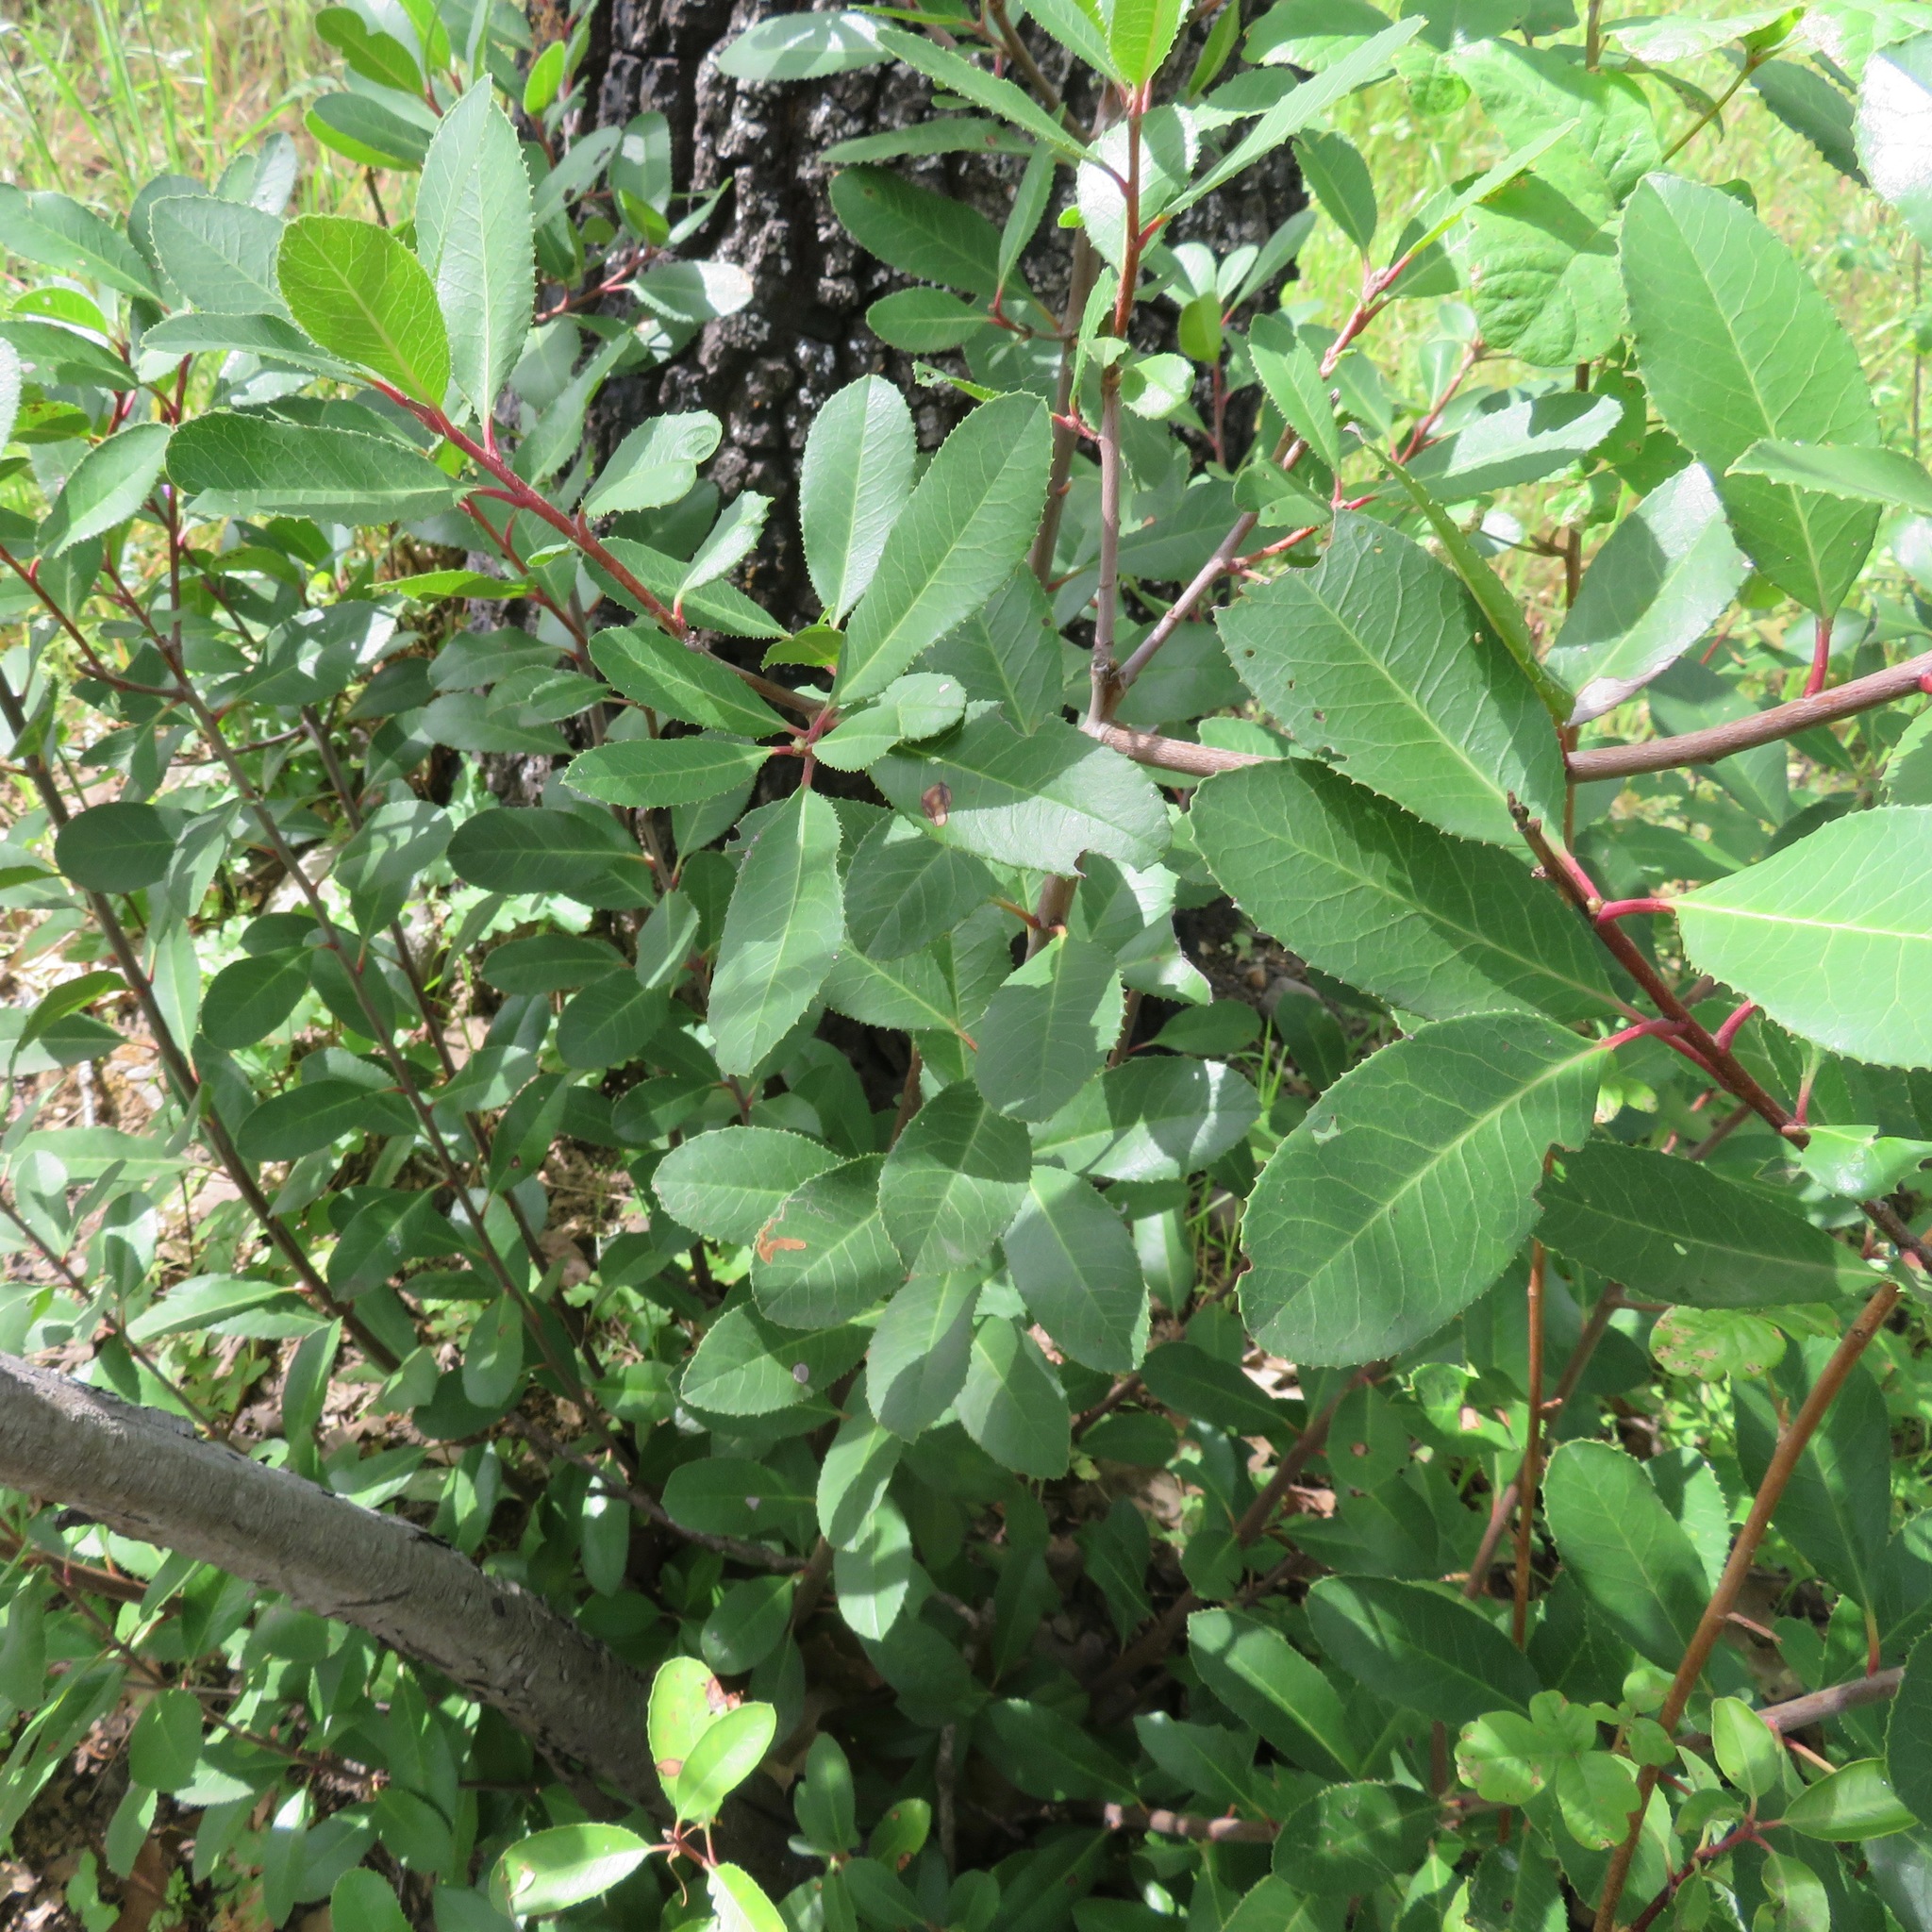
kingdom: Plantae
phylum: Tracheophyta
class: Magnoliopsida
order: Rosales
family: Rosaceae
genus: Heteromeles
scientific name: Heteromeles arbutifolia
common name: California-holly
